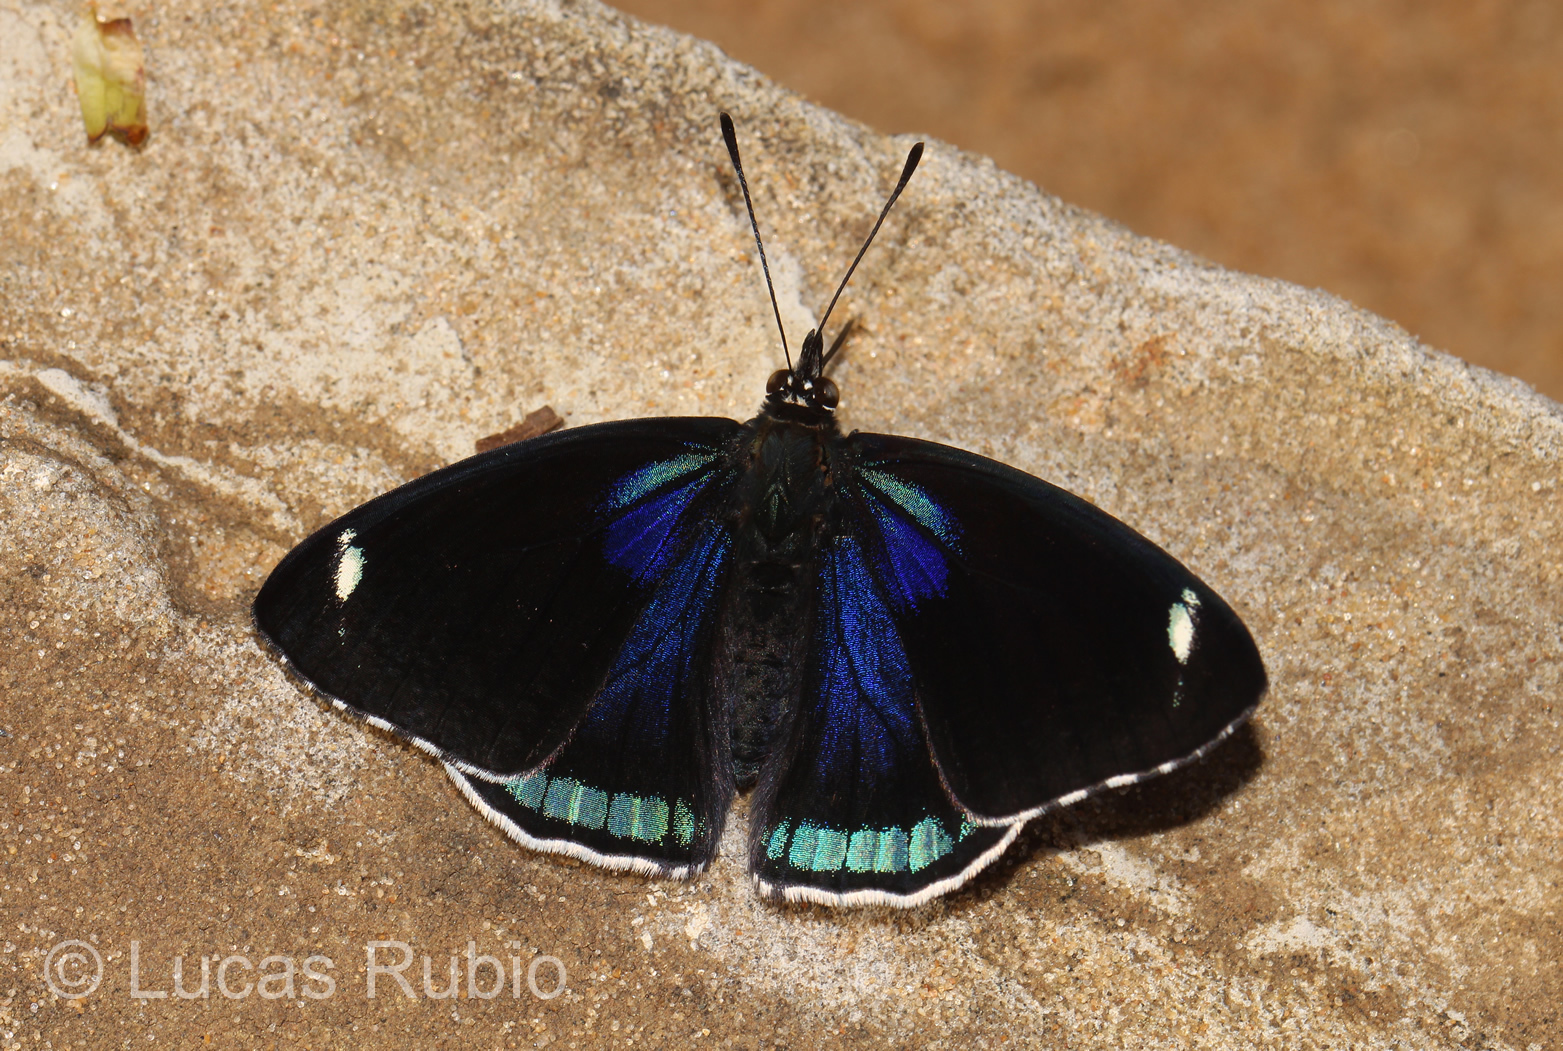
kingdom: Animalia
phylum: Arthropoda
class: Insecta
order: Lepidoptera
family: Nymphalidae
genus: Diaethria
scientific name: Diaethria candrena
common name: Number eighty
